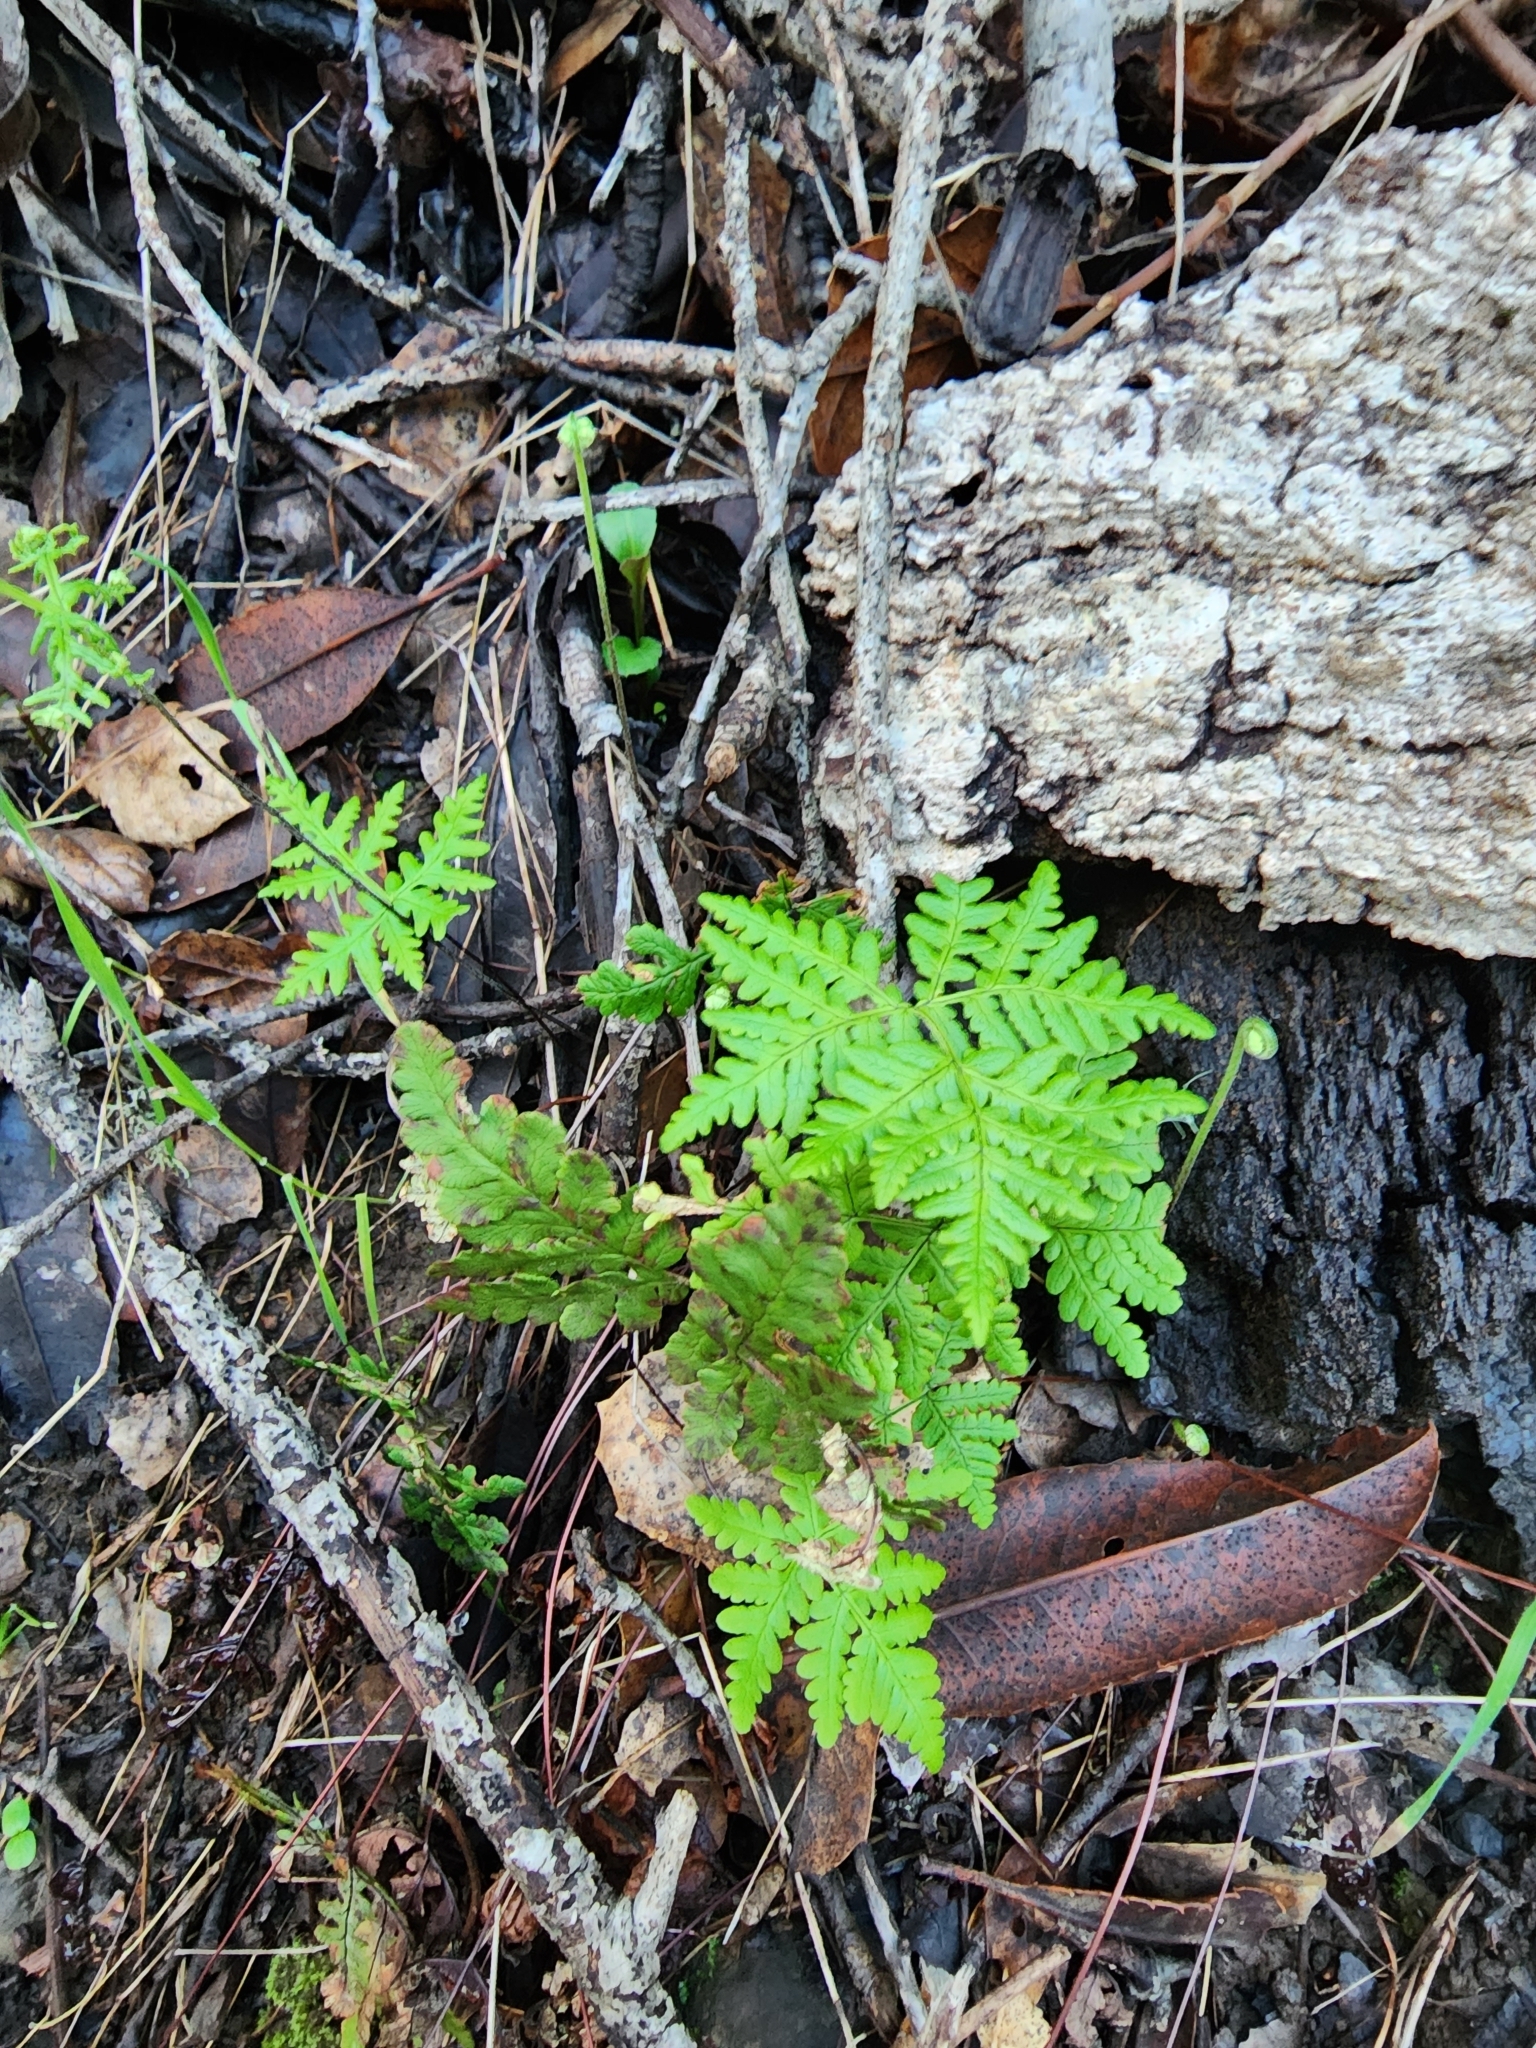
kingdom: Plantae
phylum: Tracheophyta
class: Polypodiopsida
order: Polypodiales
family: Pteridaceae
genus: Pentagramma
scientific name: Pentagramma triangularis
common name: Gold fern
